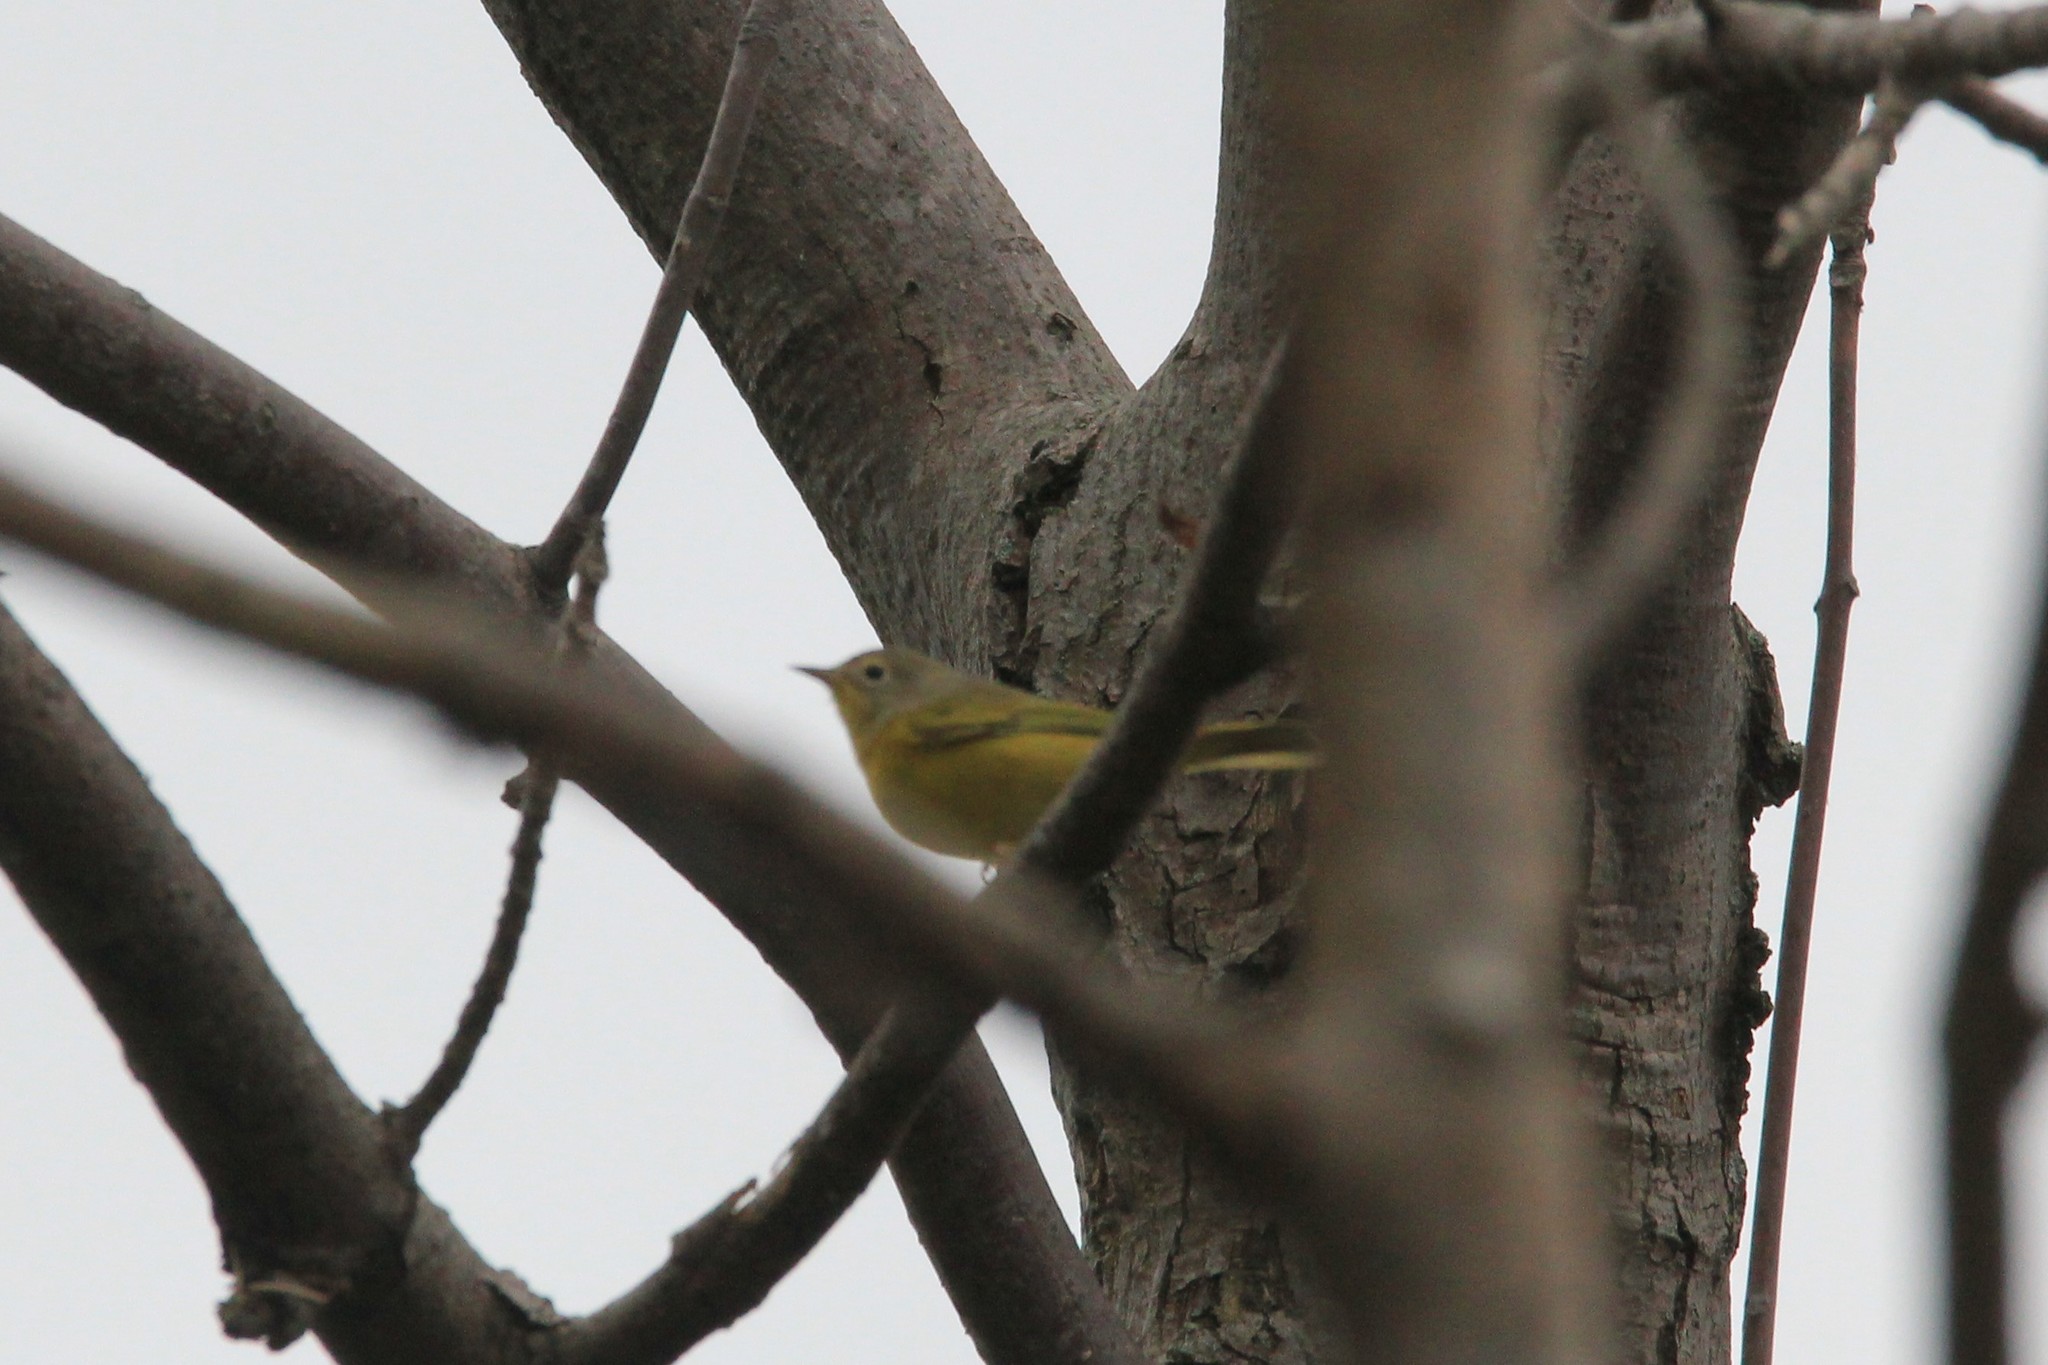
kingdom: Animalia
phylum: Chordata
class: Aves
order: Passeriformes
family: Parulidae
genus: Leiothlypis
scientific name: Leiothlypis ruficapilla
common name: Nashville warbler
